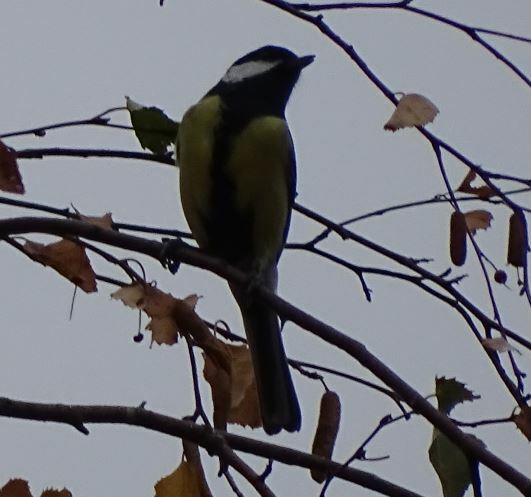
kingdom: Animalia
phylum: Chordata
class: Aves
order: Passeriformes
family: Paridae
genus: Parus
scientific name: Parus major
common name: Great tit
